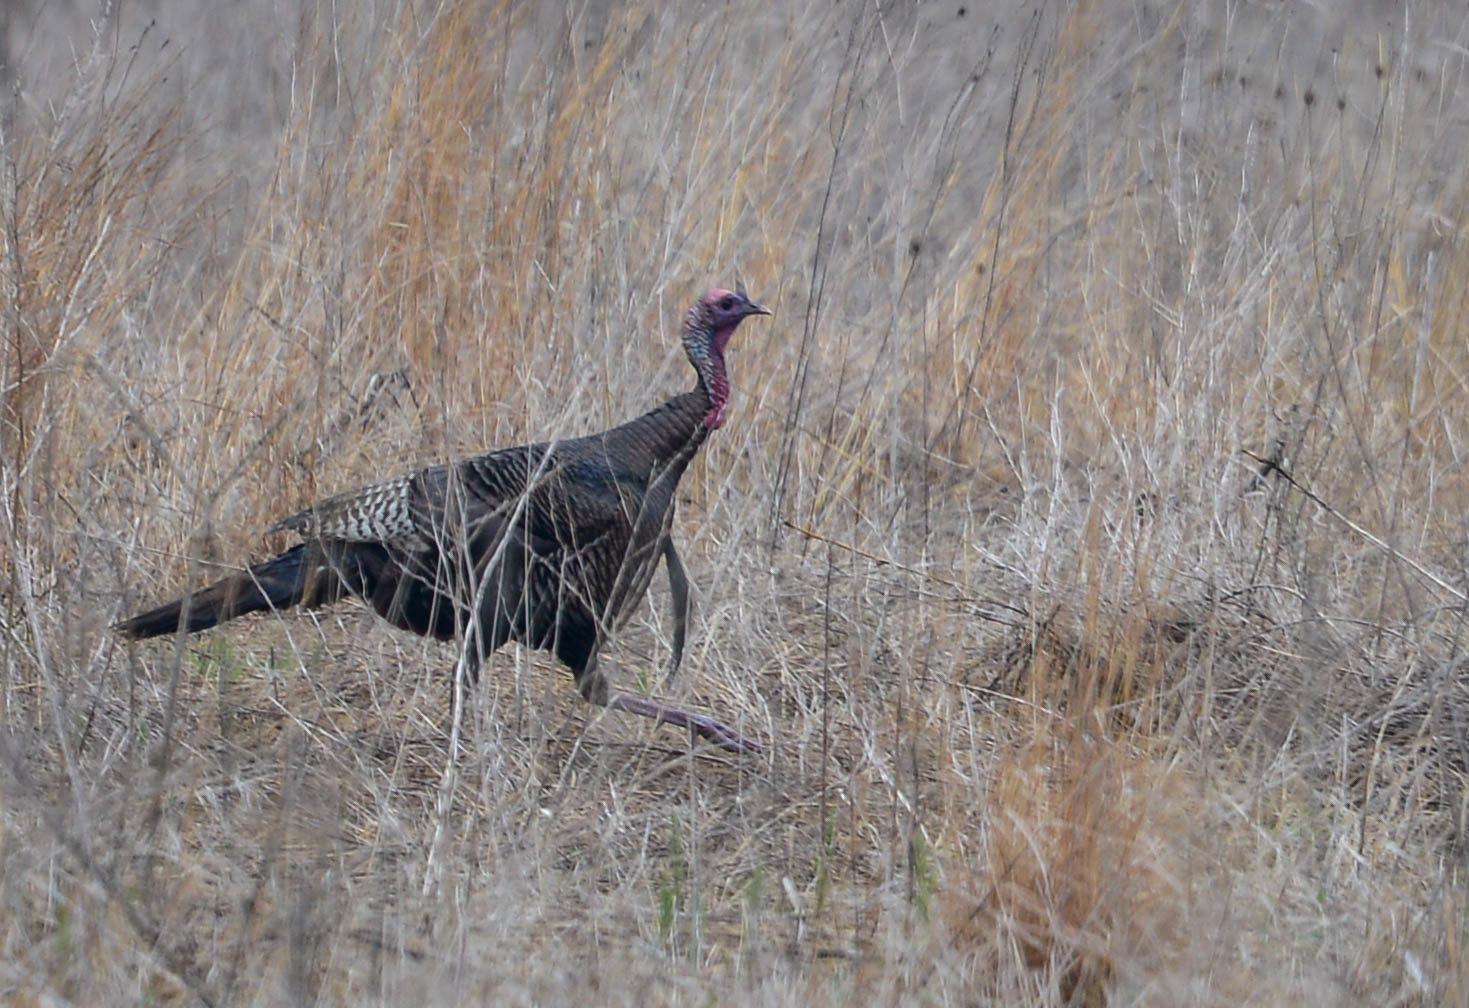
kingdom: Animalia
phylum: Chordata
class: Aves
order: Galliformes
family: Phasianidae
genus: Meleagris
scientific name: Meleagris gallopavo
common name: Wild turkey
